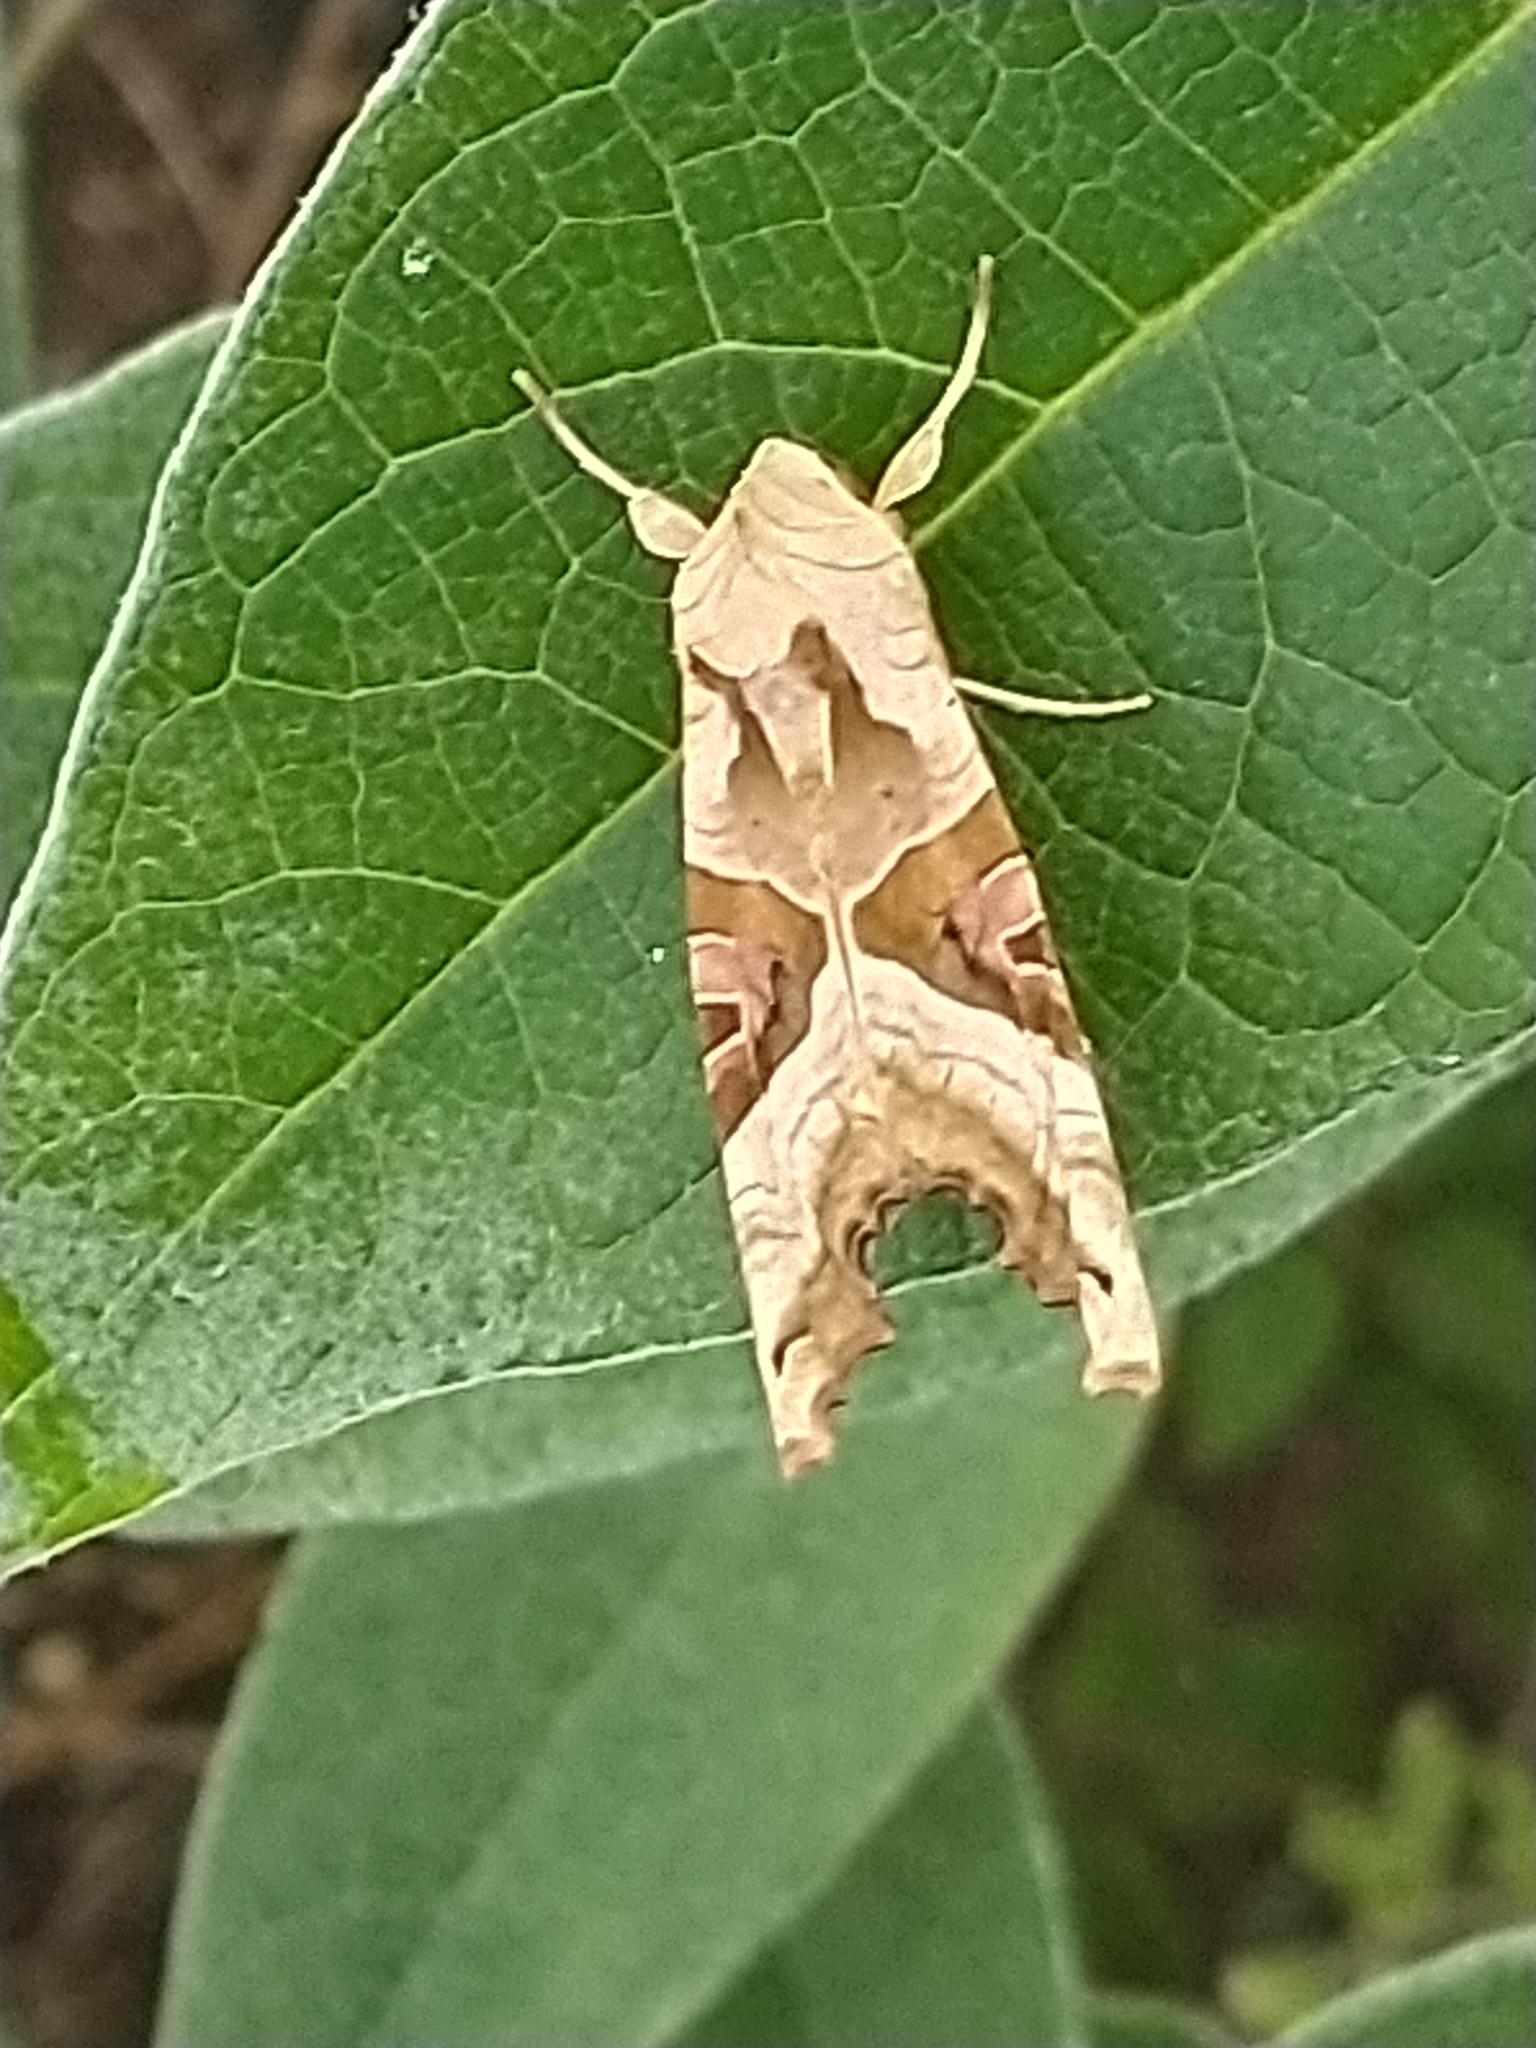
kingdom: Animalia
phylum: Arthropoda
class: Insecta
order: Lepidoptera
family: Noctuidae
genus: Phlogophora
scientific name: Phlogophora meticulosa
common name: Angle shades
